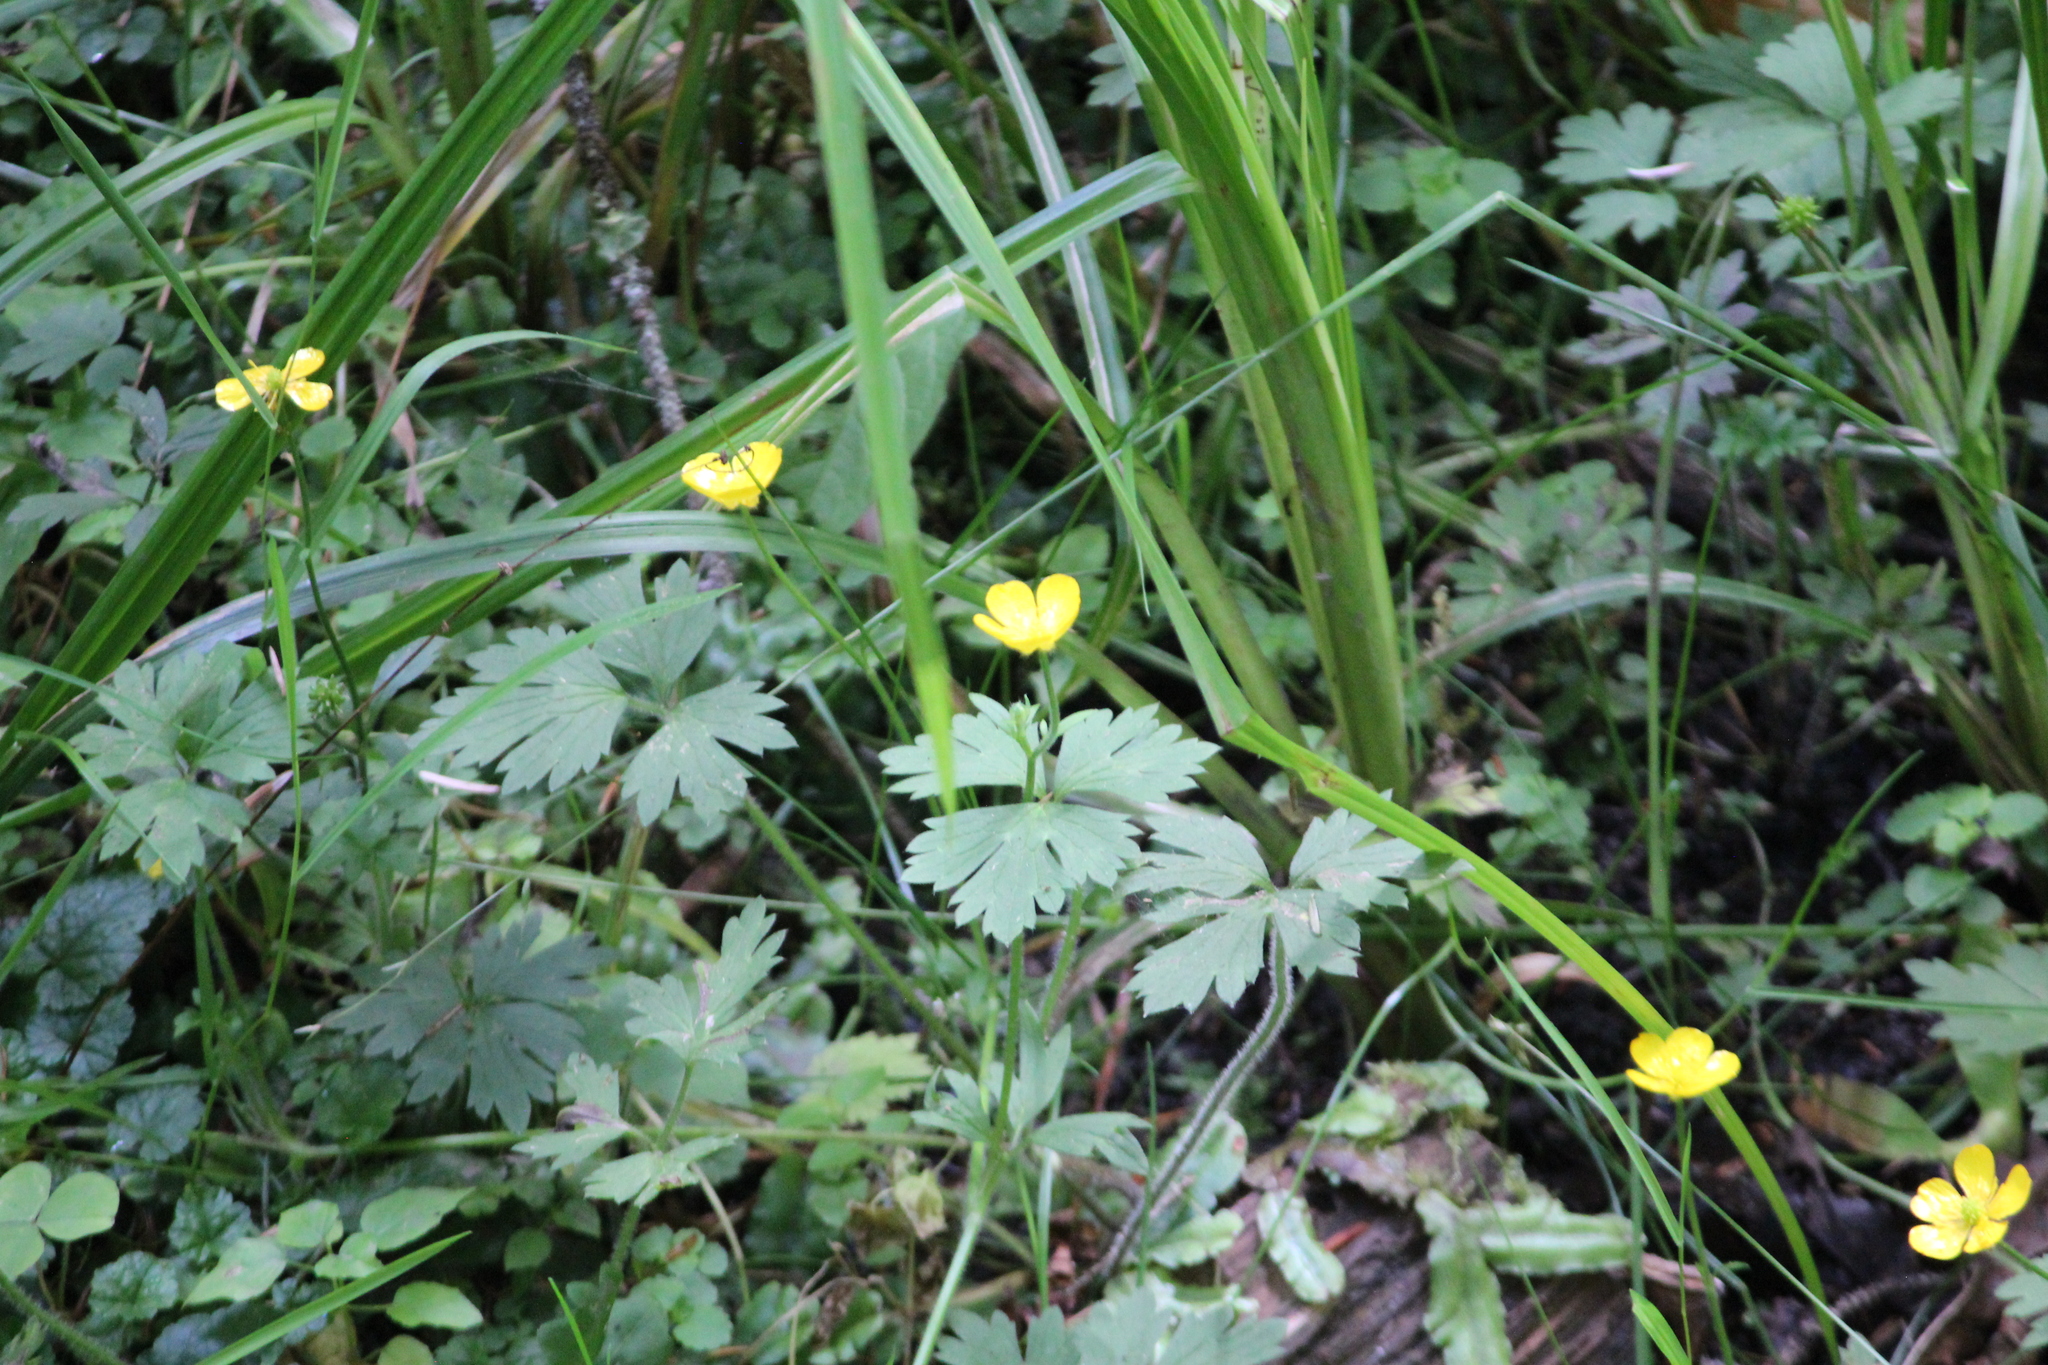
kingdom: Plantae
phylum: Tracheophyta
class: Magnoliopsida
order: Ranunculales
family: Ranunculaceae
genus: Ranunculus
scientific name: Ranunculus repens
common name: Creeping buttercup
